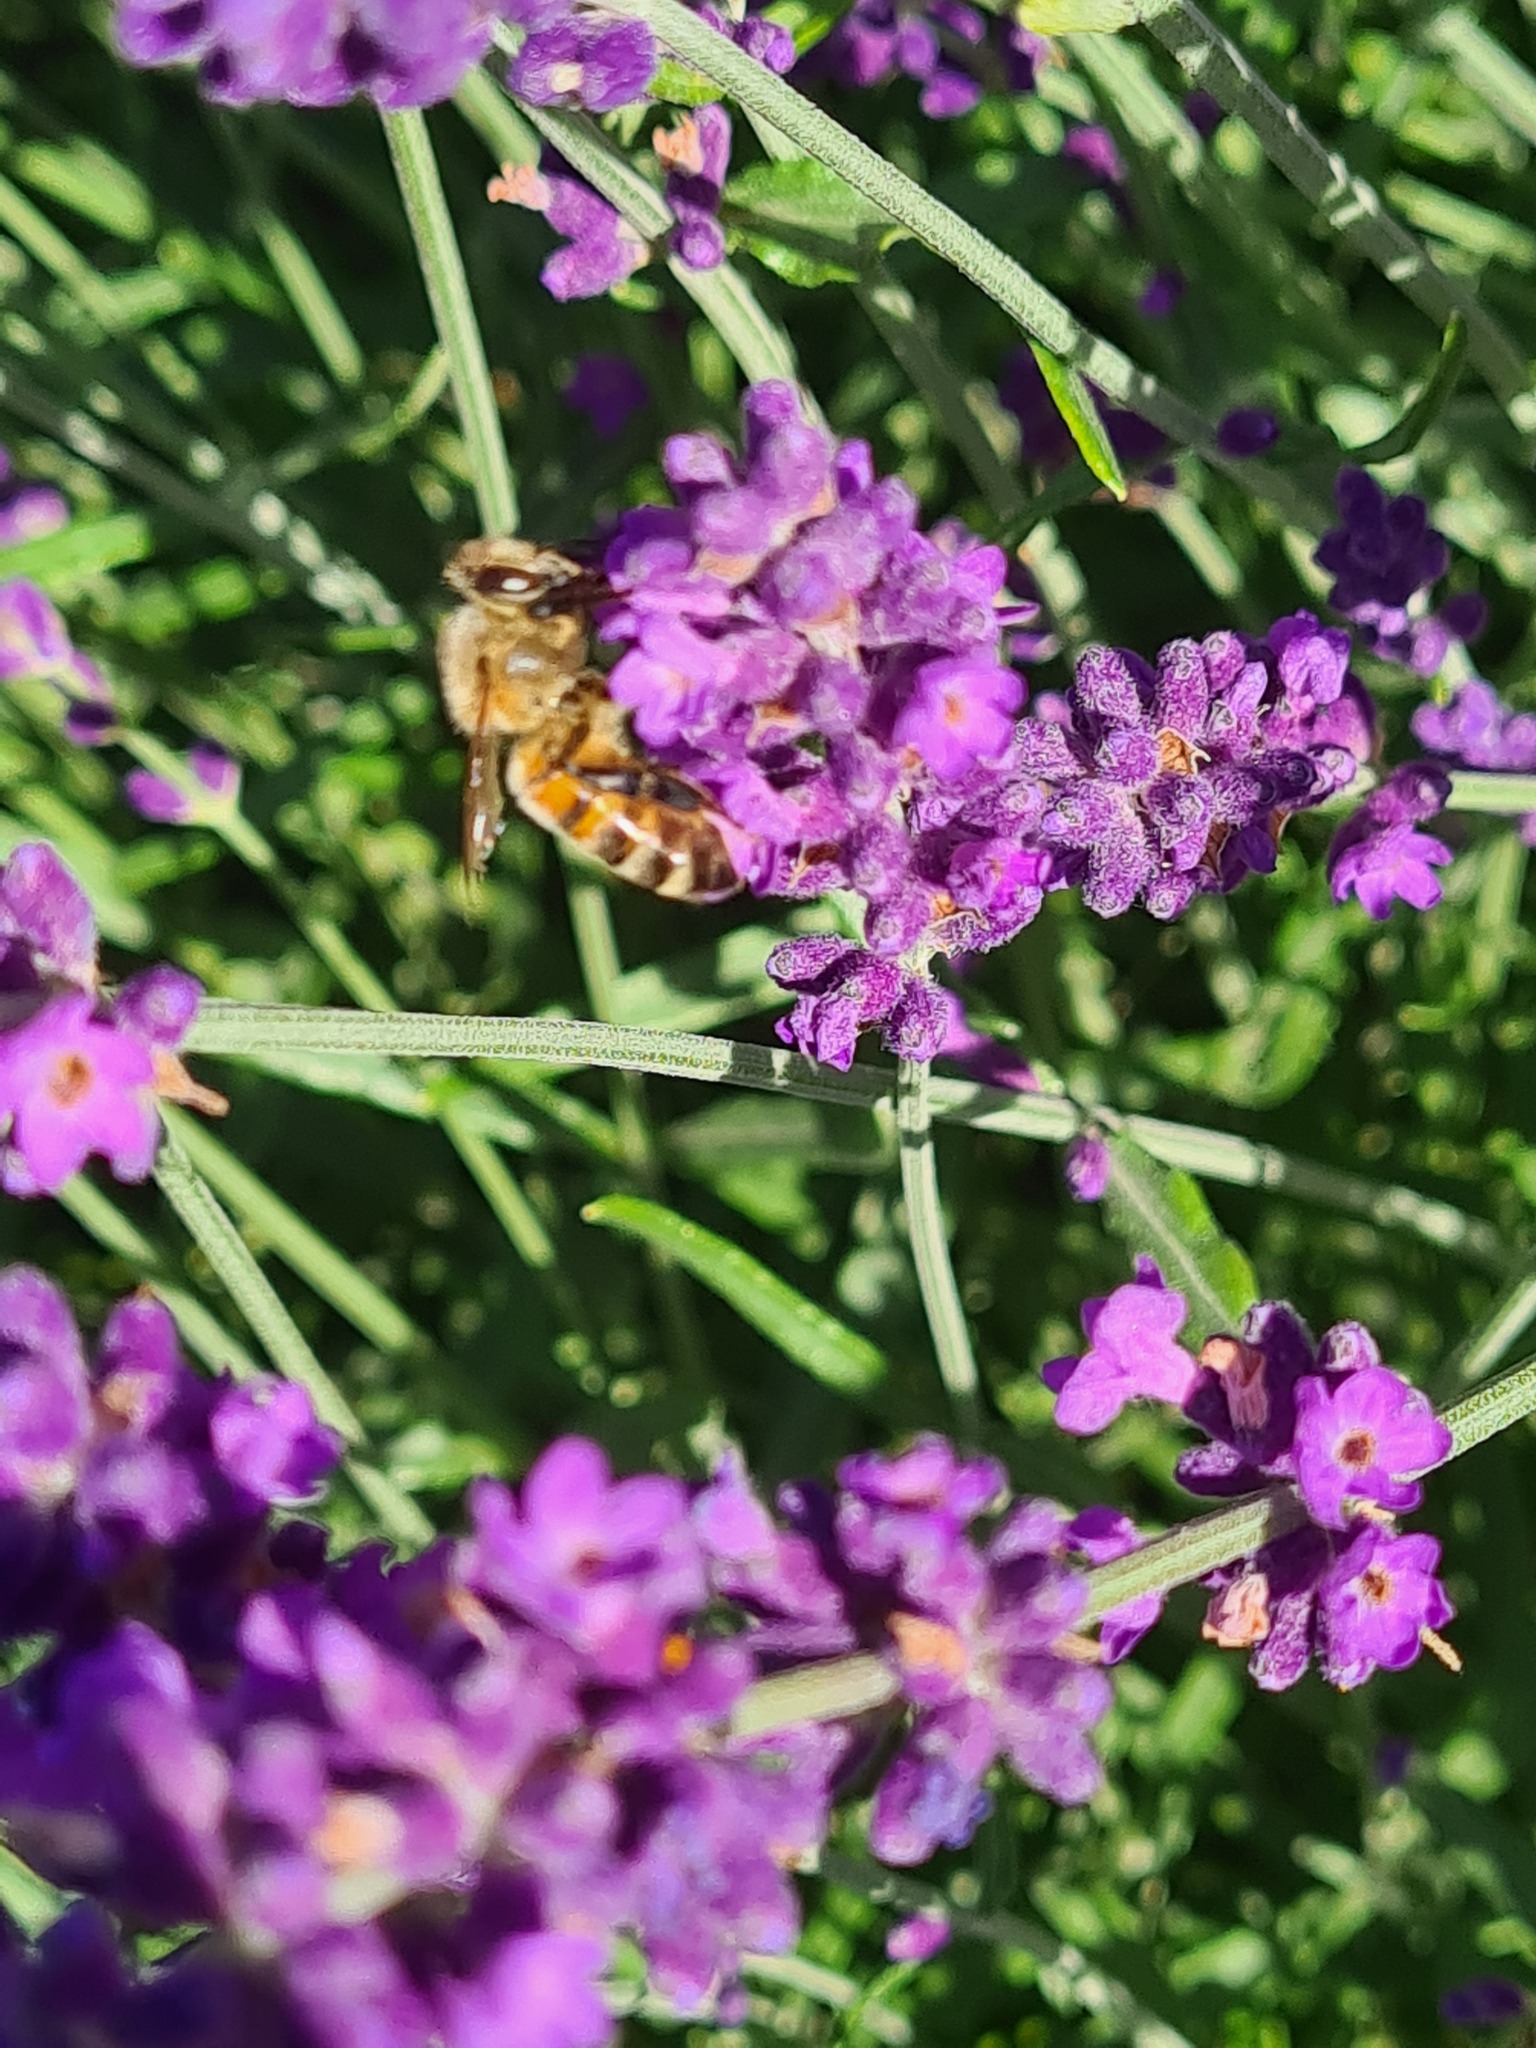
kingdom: Animalia
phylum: Arthropoda
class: Insecta
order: Hymenoptera
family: Apidae
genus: Apis
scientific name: Apis mellifera
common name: Honey bee
